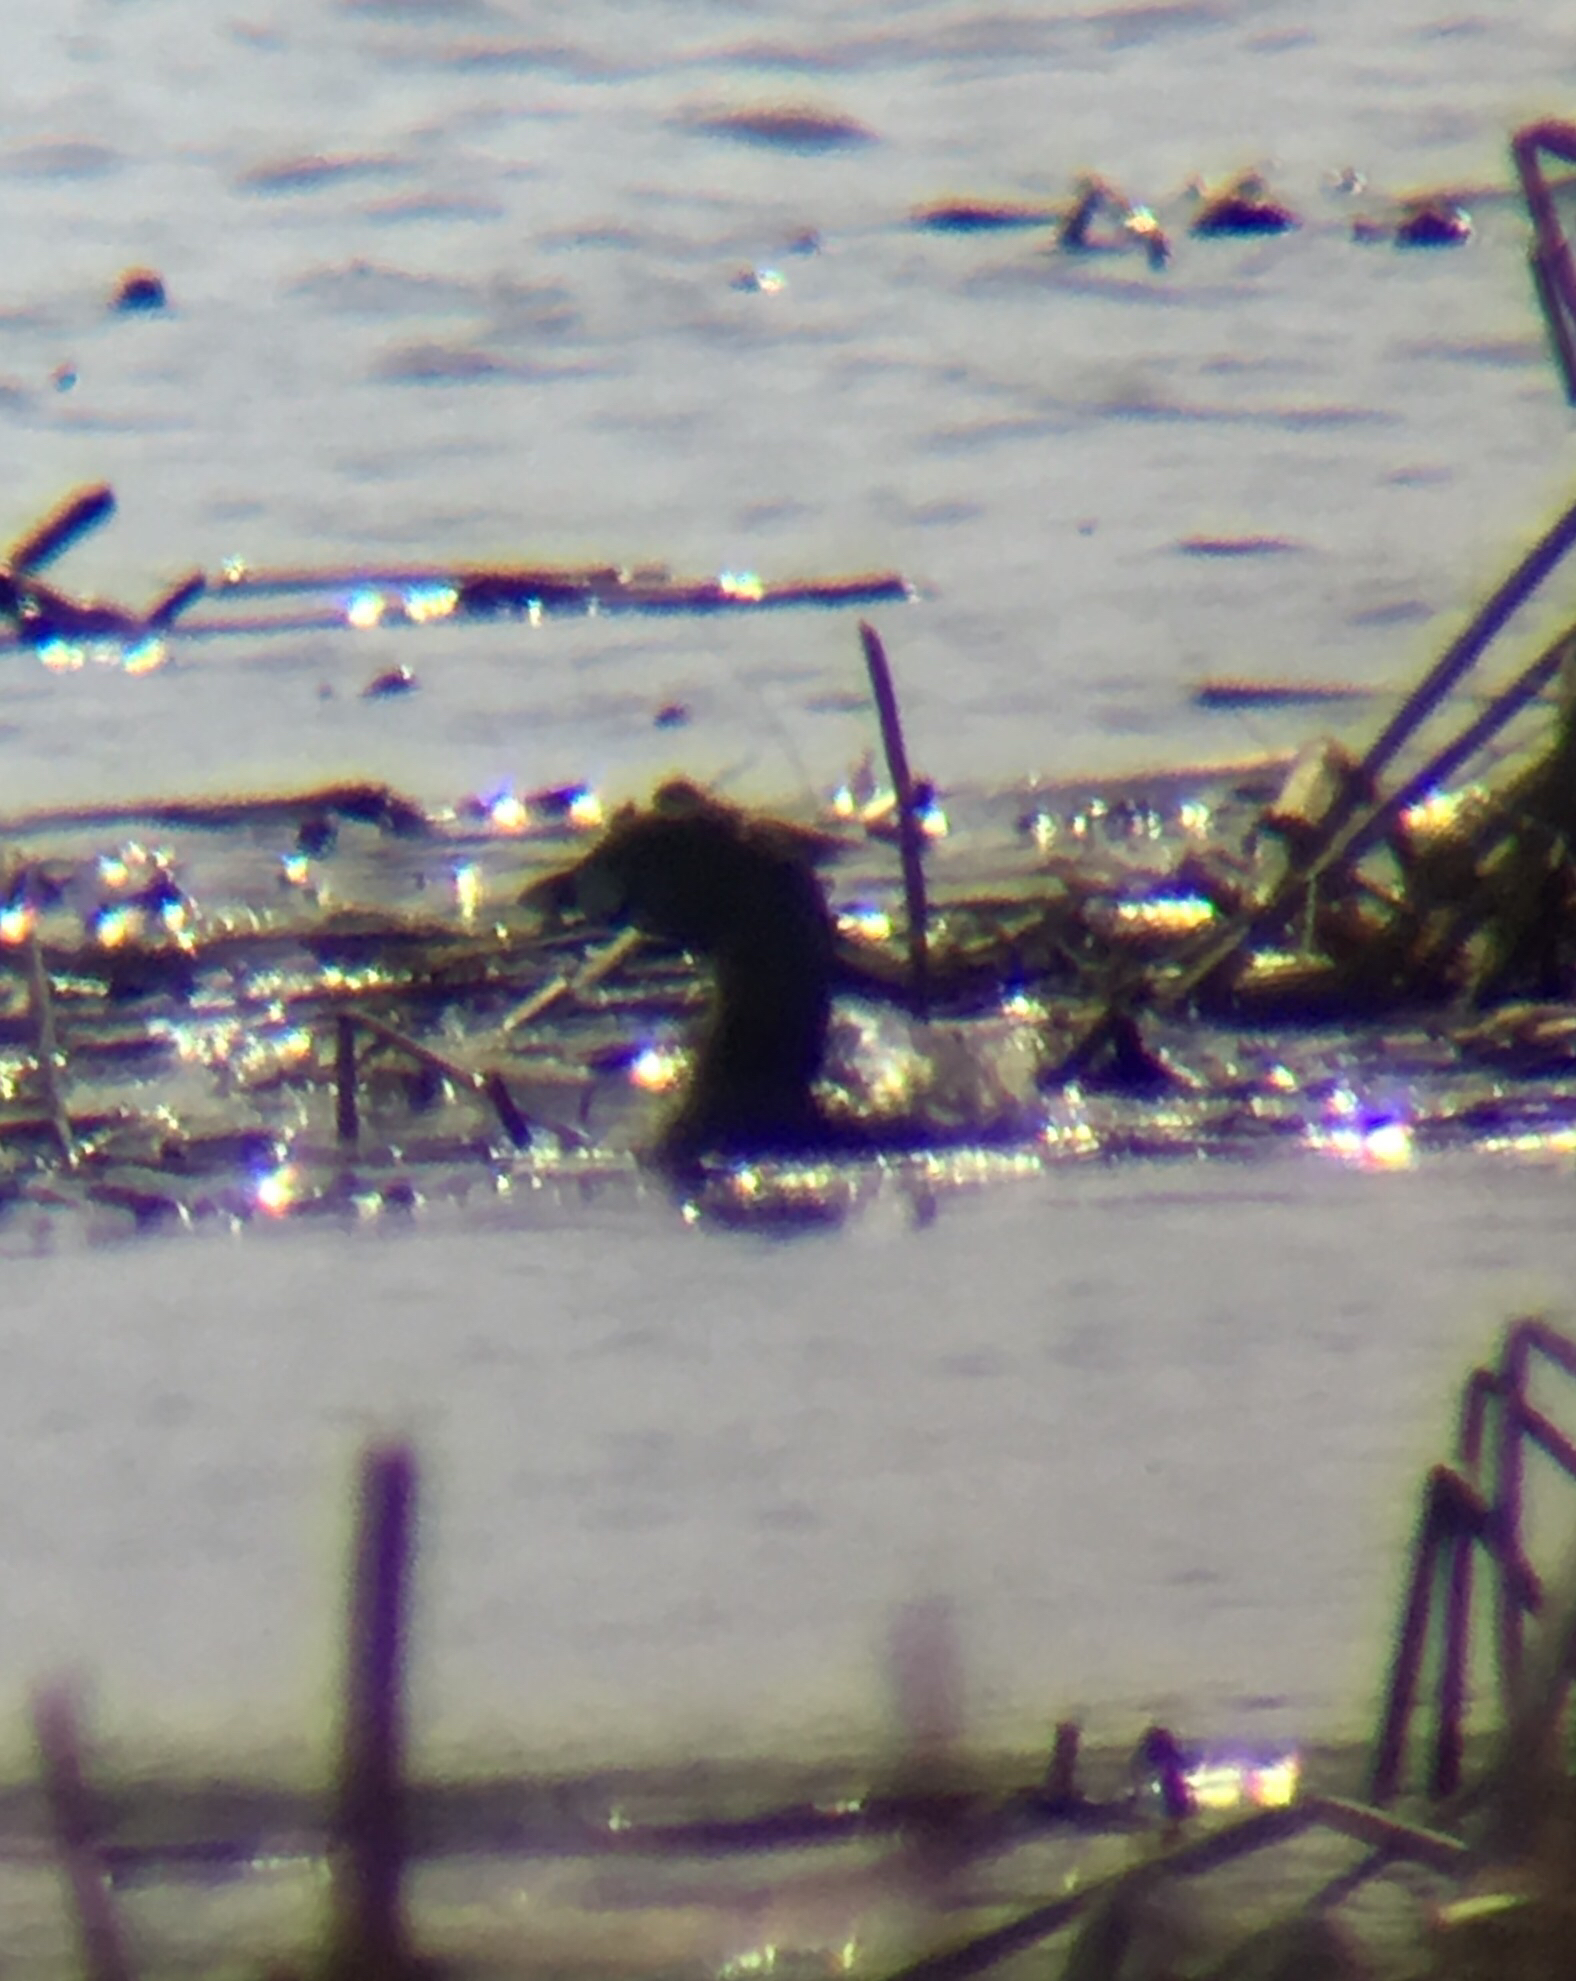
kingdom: Animalia
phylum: Chordata
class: Aves
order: Podicipediformes
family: Podicipedidae
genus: Podilymbus
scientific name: Podilymbus podiceps
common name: Pied-billed grebe
